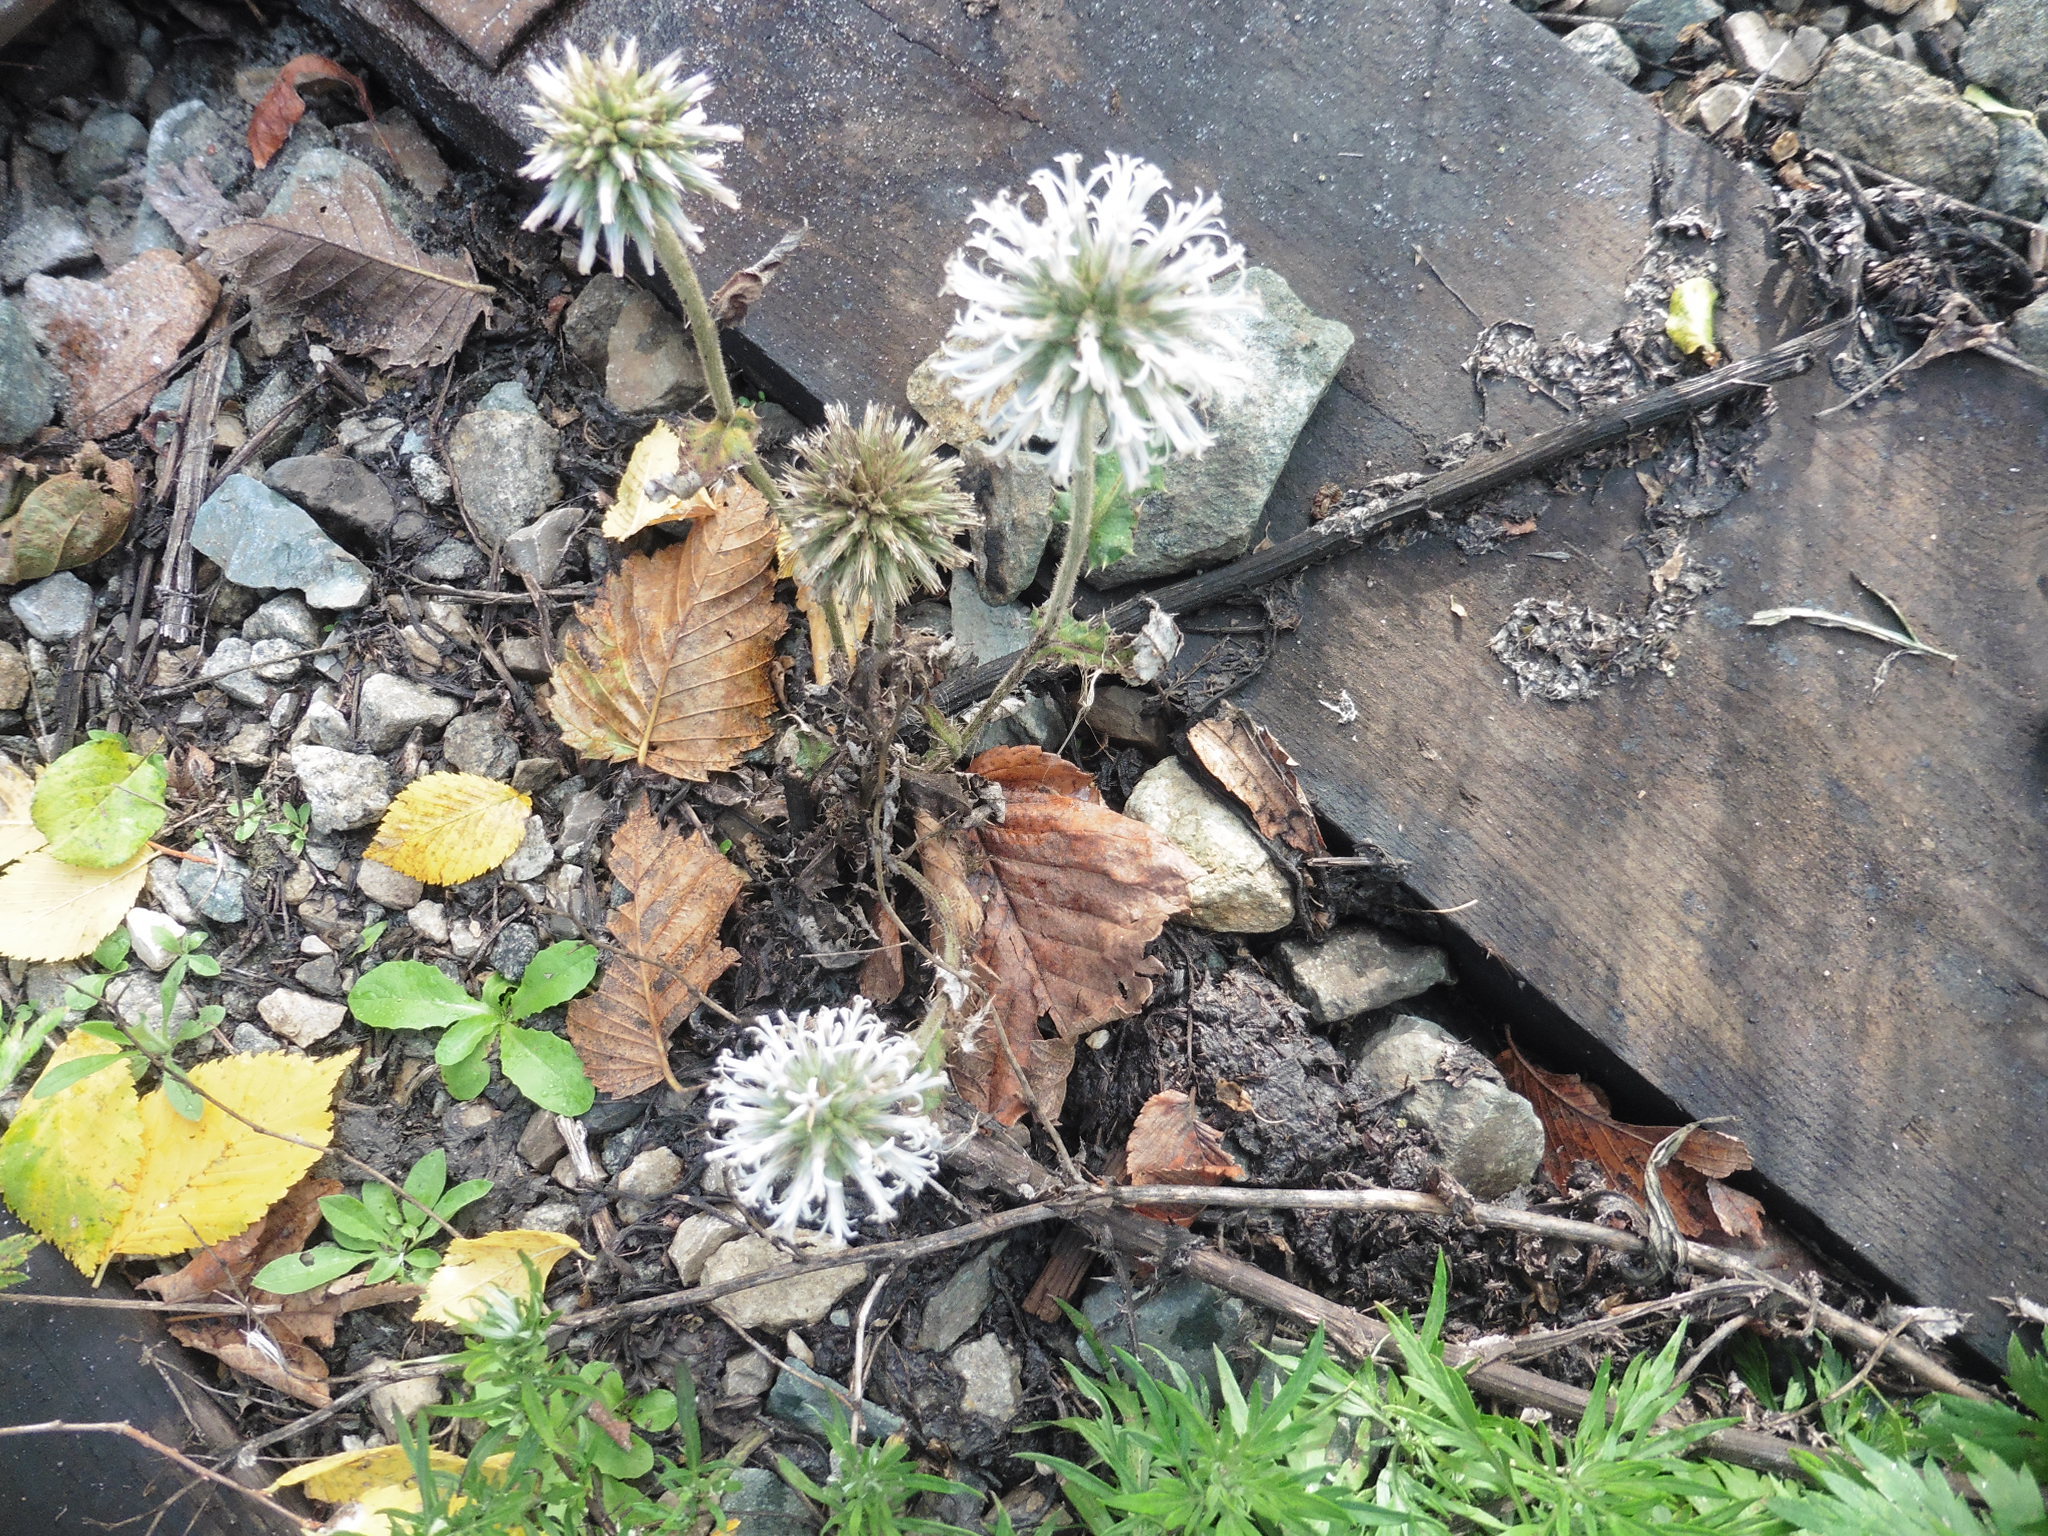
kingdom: Plantae
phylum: Tracheophyta
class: Magnoliopsida
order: Asterales
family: Asteraceae
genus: Echinops
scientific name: Echinops sphaerocephalus
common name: Glandular globe-thistle
